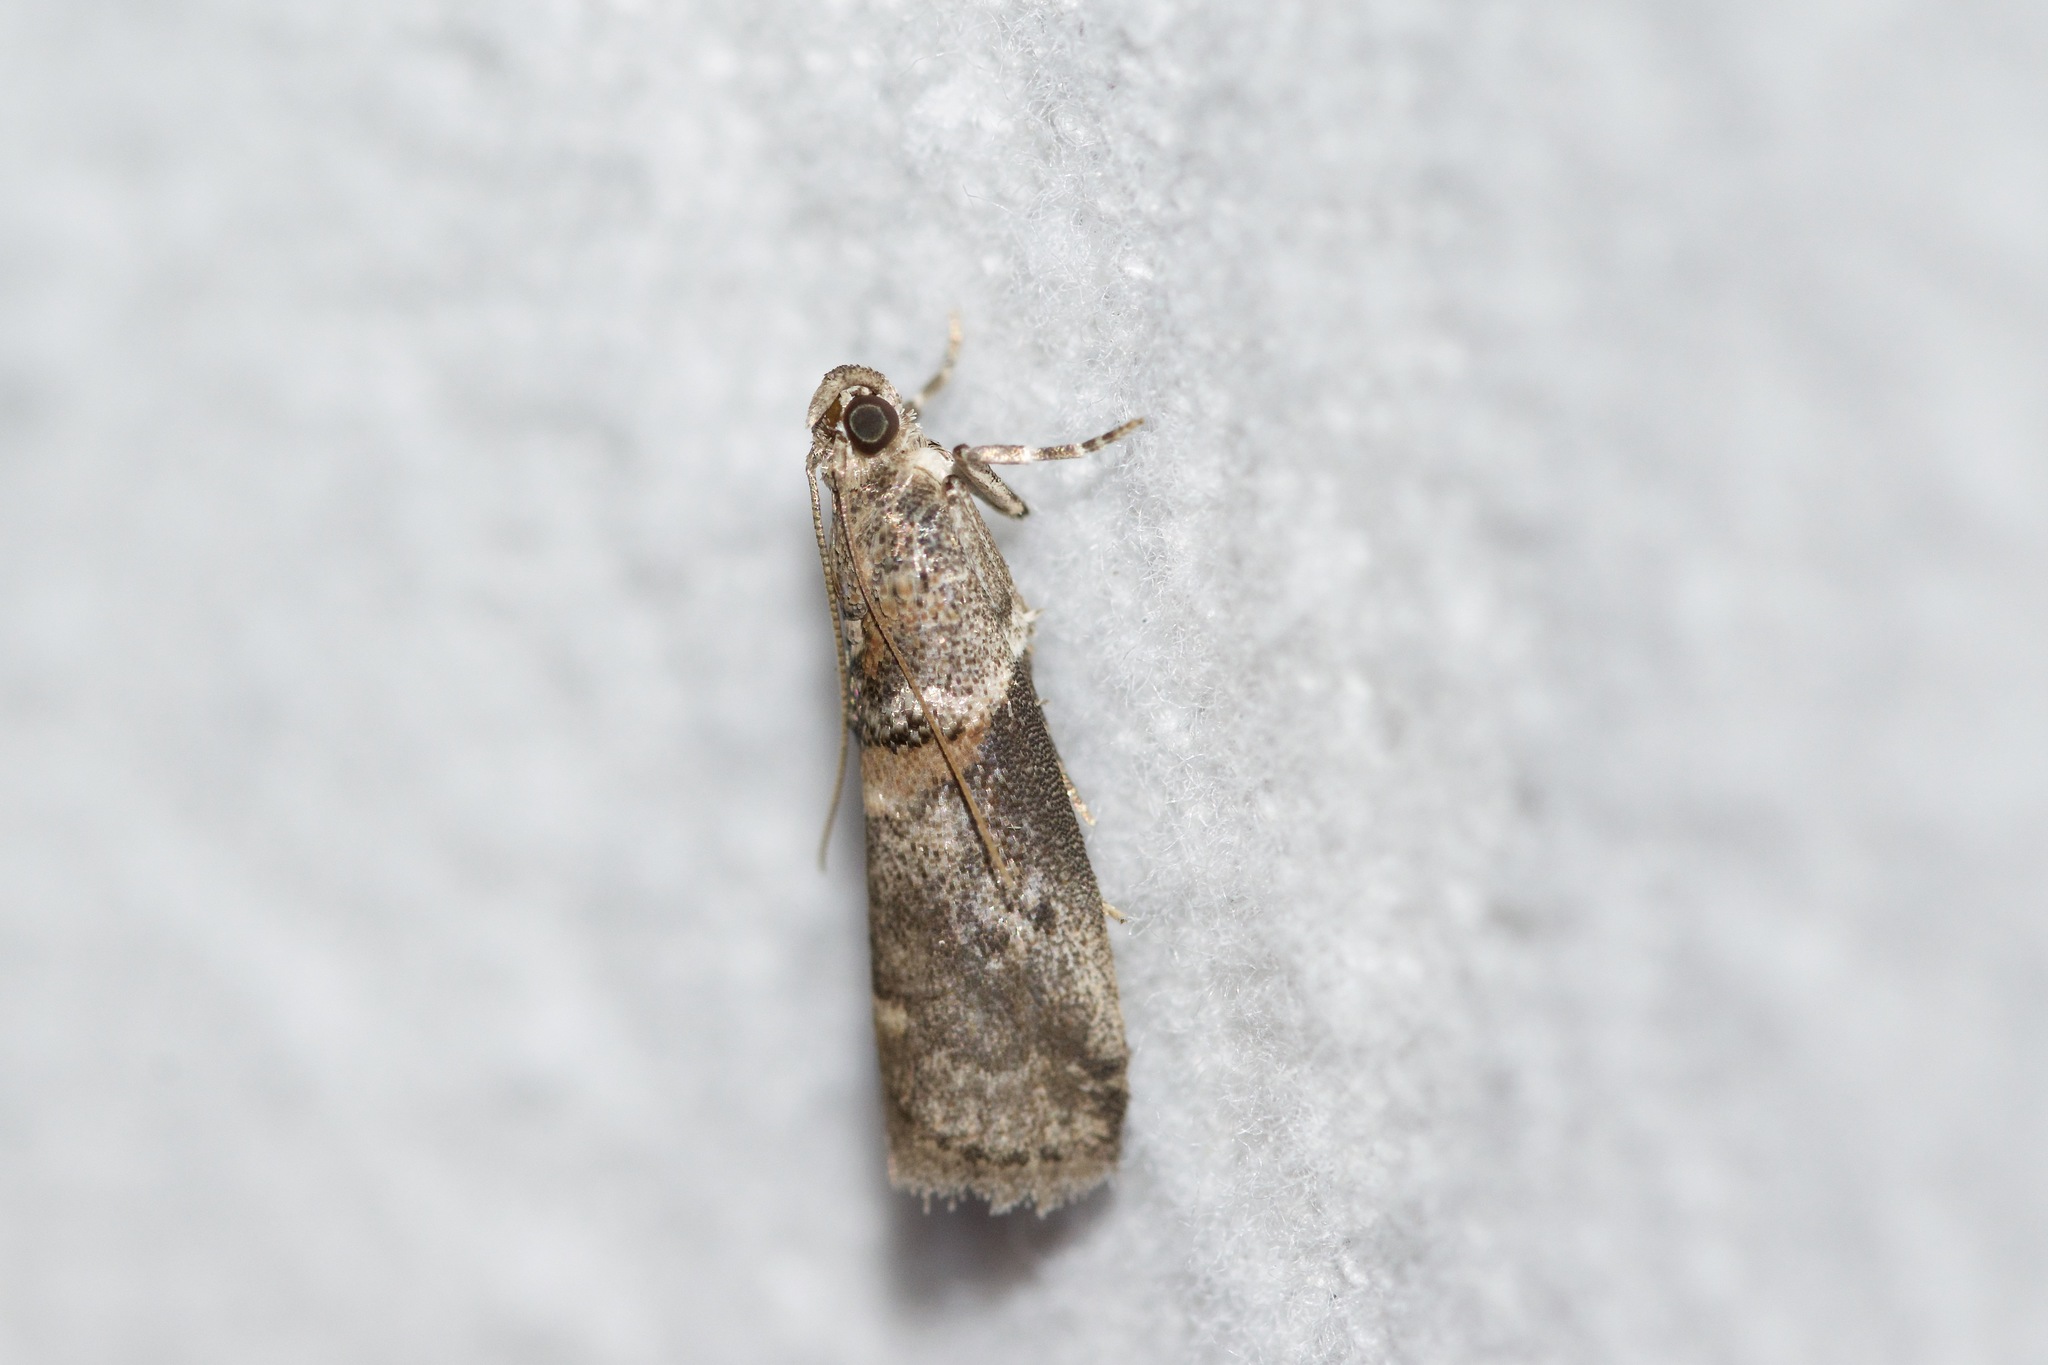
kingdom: Animalia
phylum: Arthropoda
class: Insecta
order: Lepidoptera
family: Pyralidae
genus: Acrobasis
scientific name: Acrobasis juglandis
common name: Pecan leaf casebearer moth
